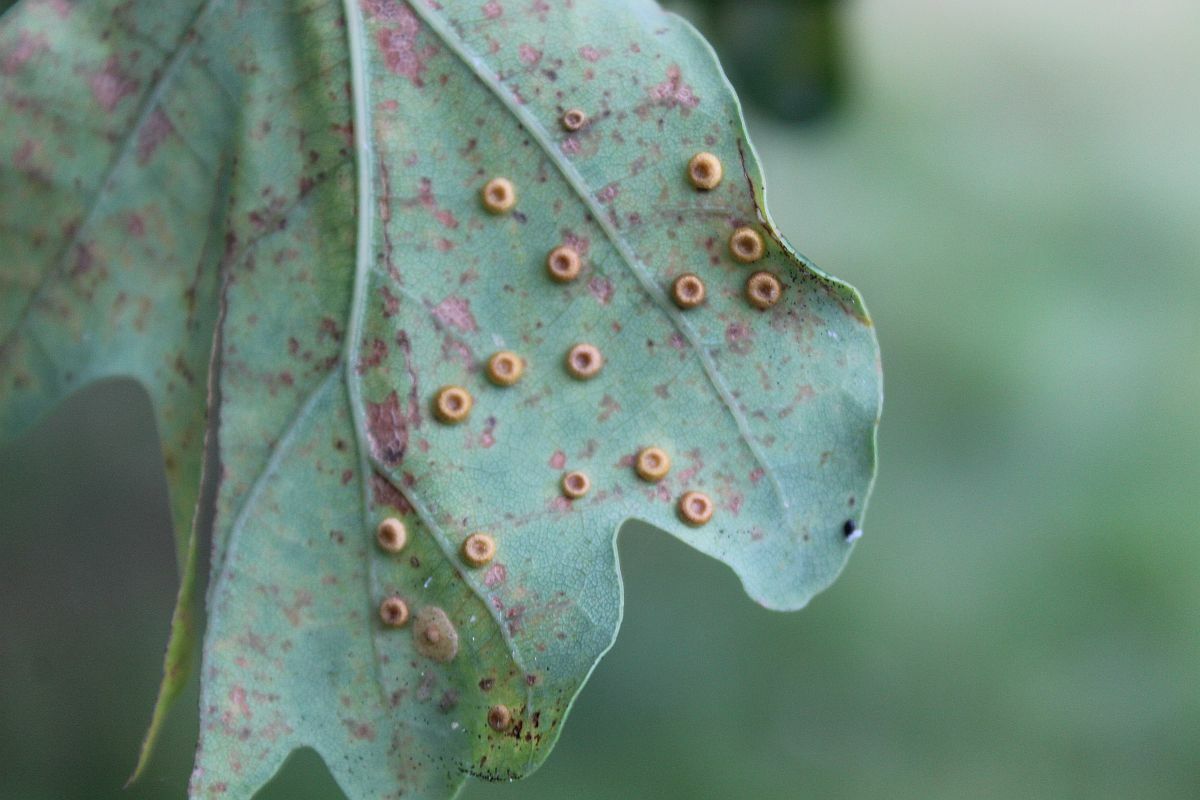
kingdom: Animalia
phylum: Arthropoda
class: Insecta
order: Hymenoptera
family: Cynipidae
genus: Neuroterus
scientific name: Neuroterus numismalis
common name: Silk-button spangle gall
